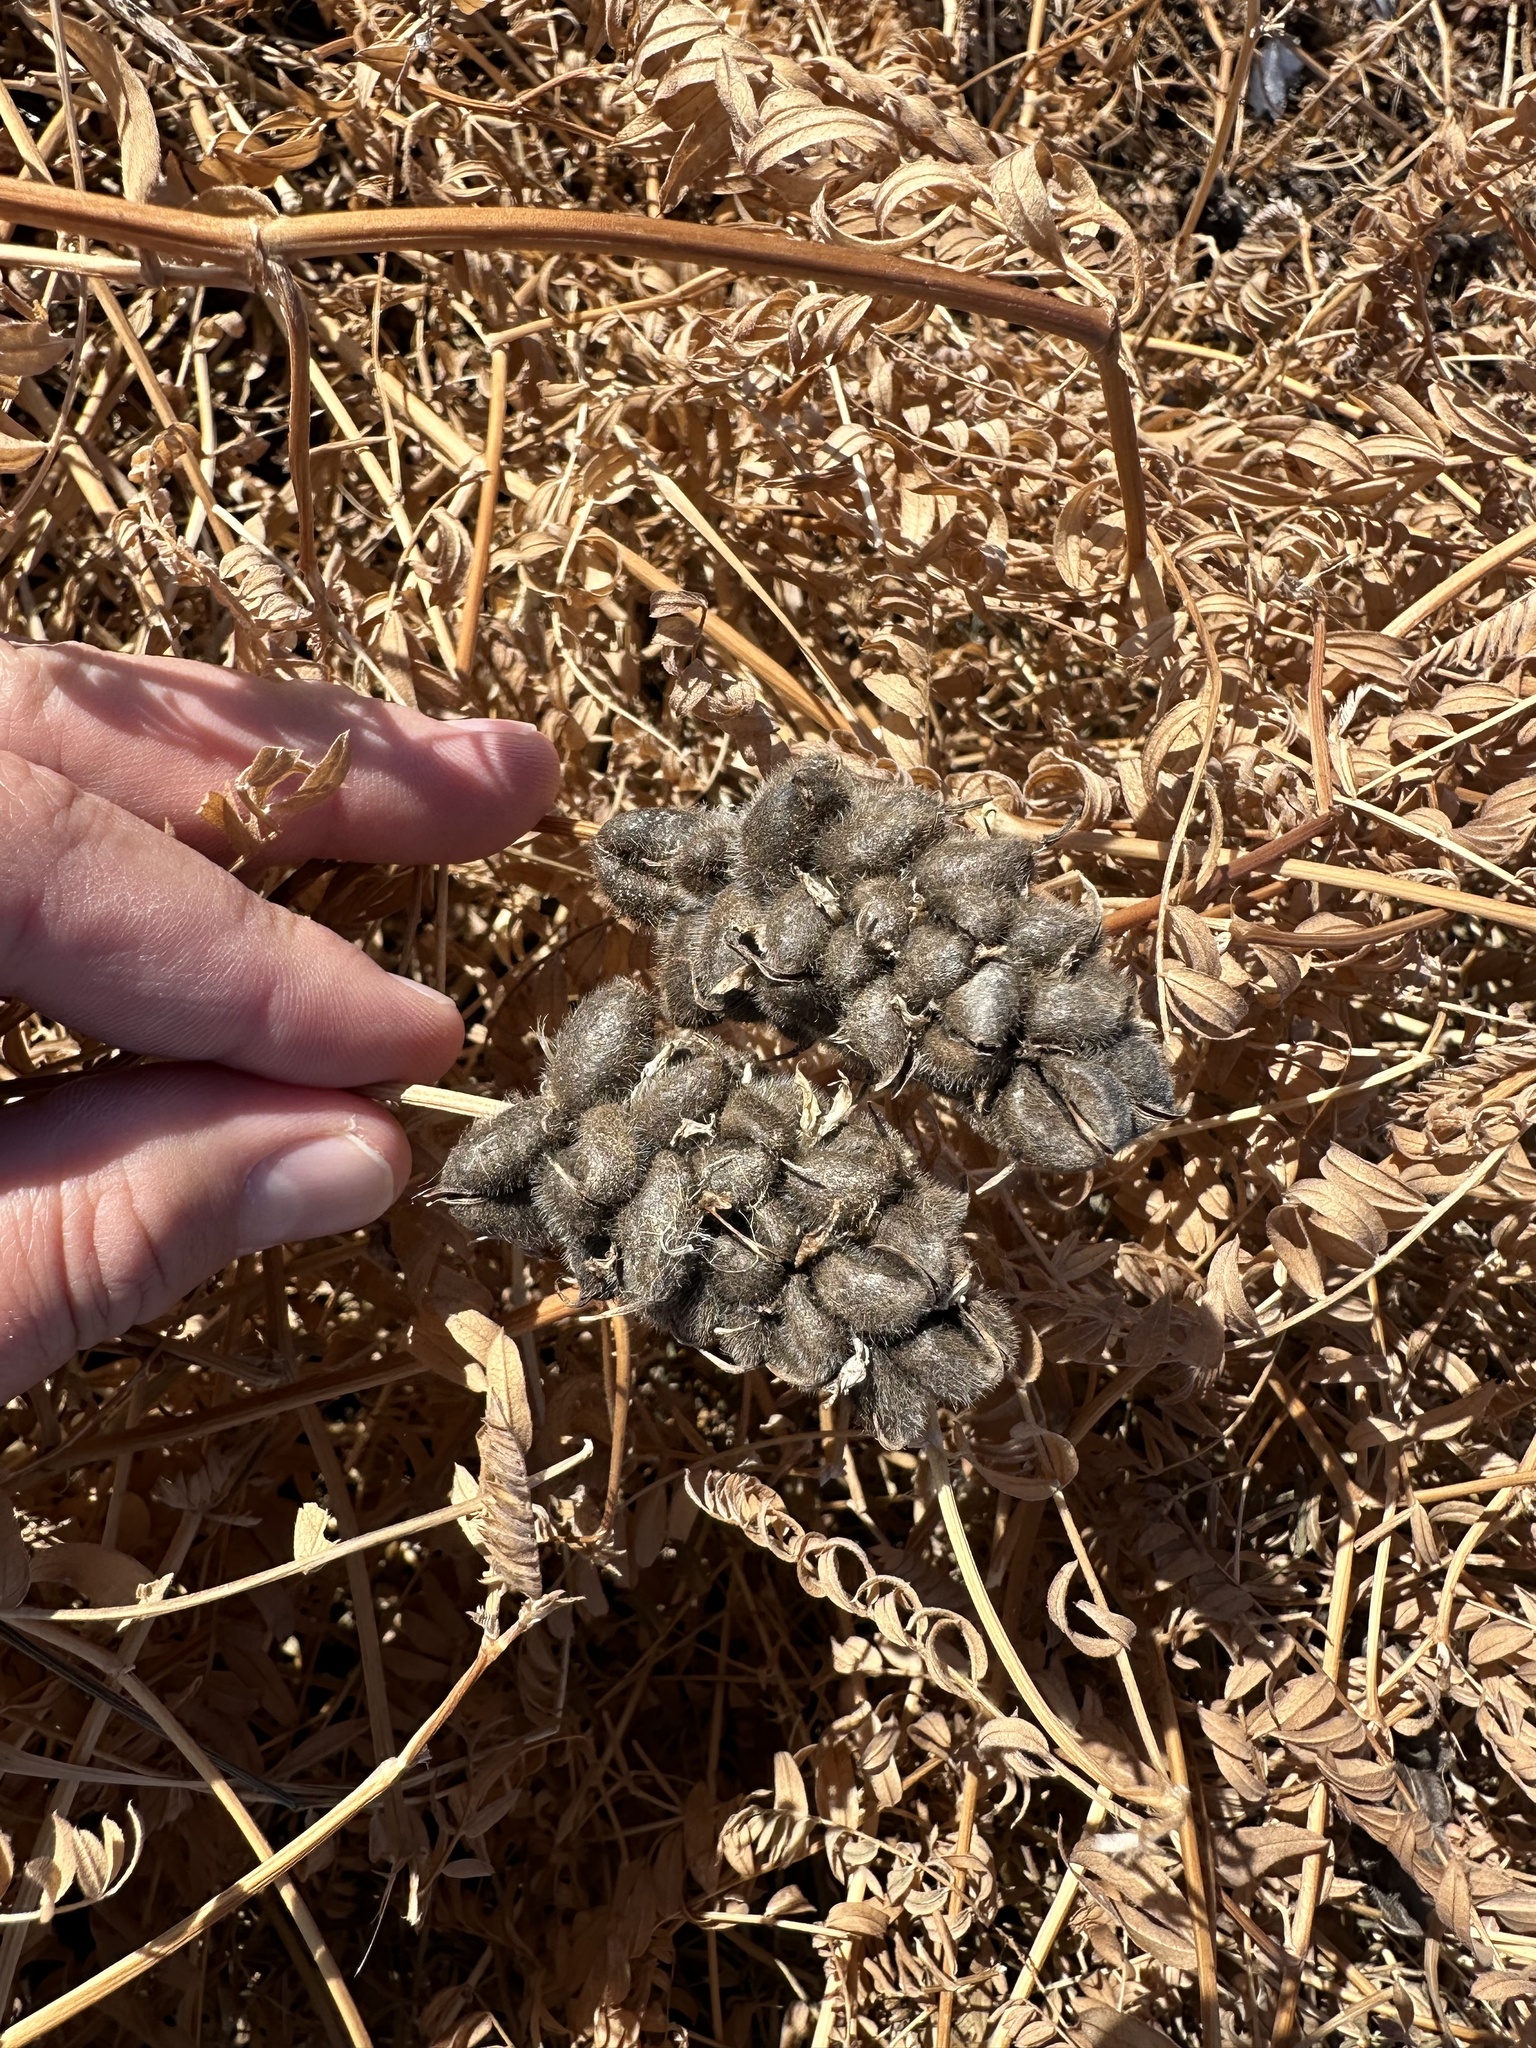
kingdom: Plantae
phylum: Tracheophyta
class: Magnoliopsida
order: Fabales
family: Fabaceae
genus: Astragalus
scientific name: Astragalus cicer
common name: Chick-pea milk-vetch
